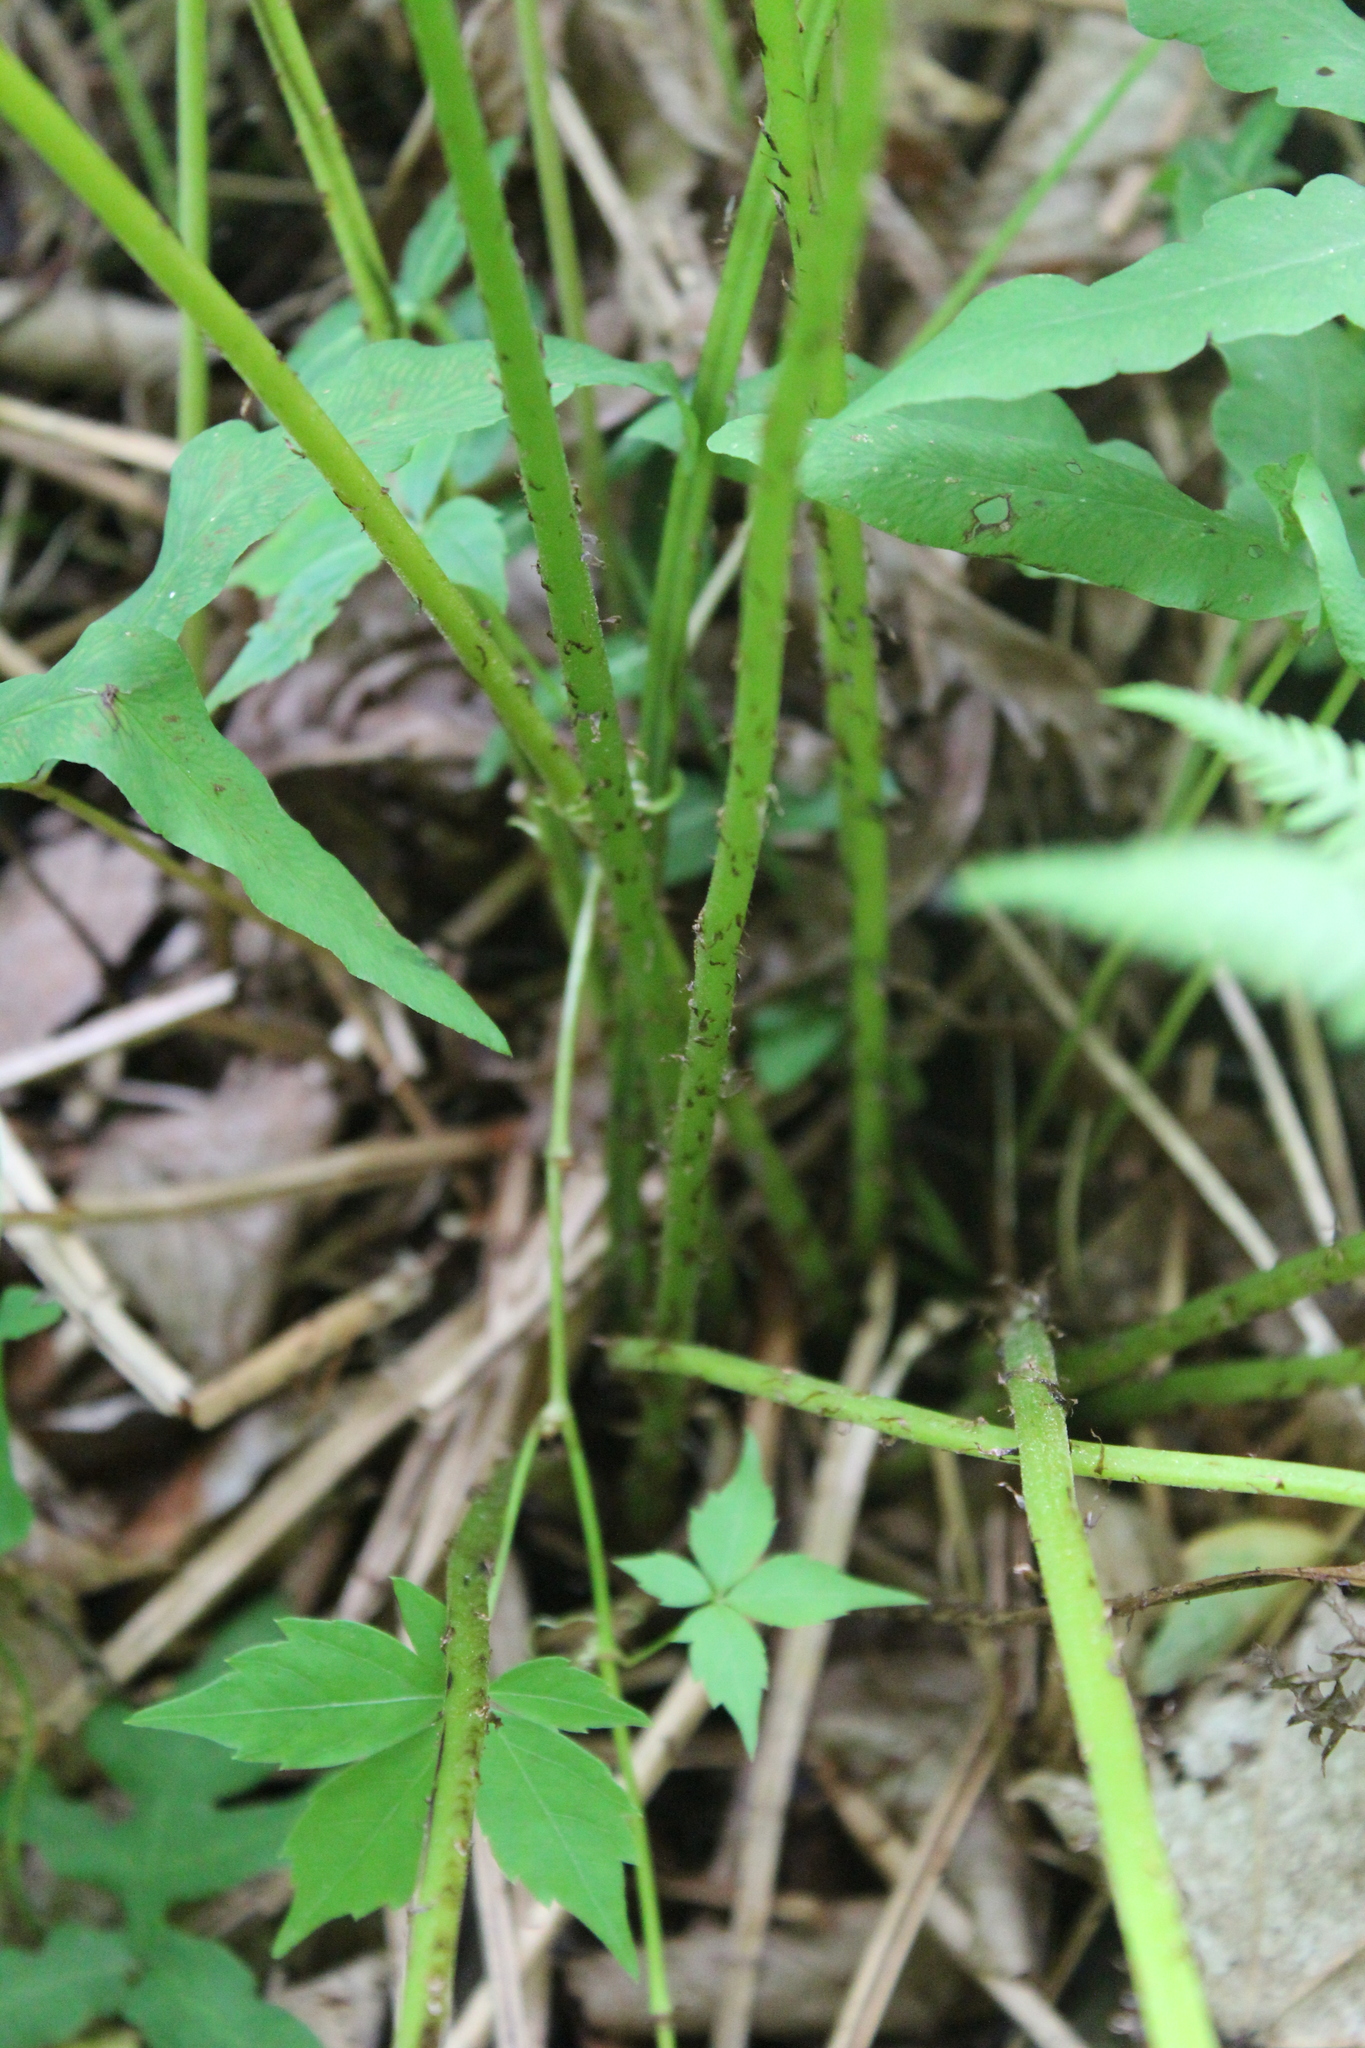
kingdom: Plantae
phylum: Tracheophyta
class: Polypodiopsida
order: Polypodiales
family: Athyriaceae
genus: Athyrium
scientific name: Athyrium angustum
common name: Northern lady fern
